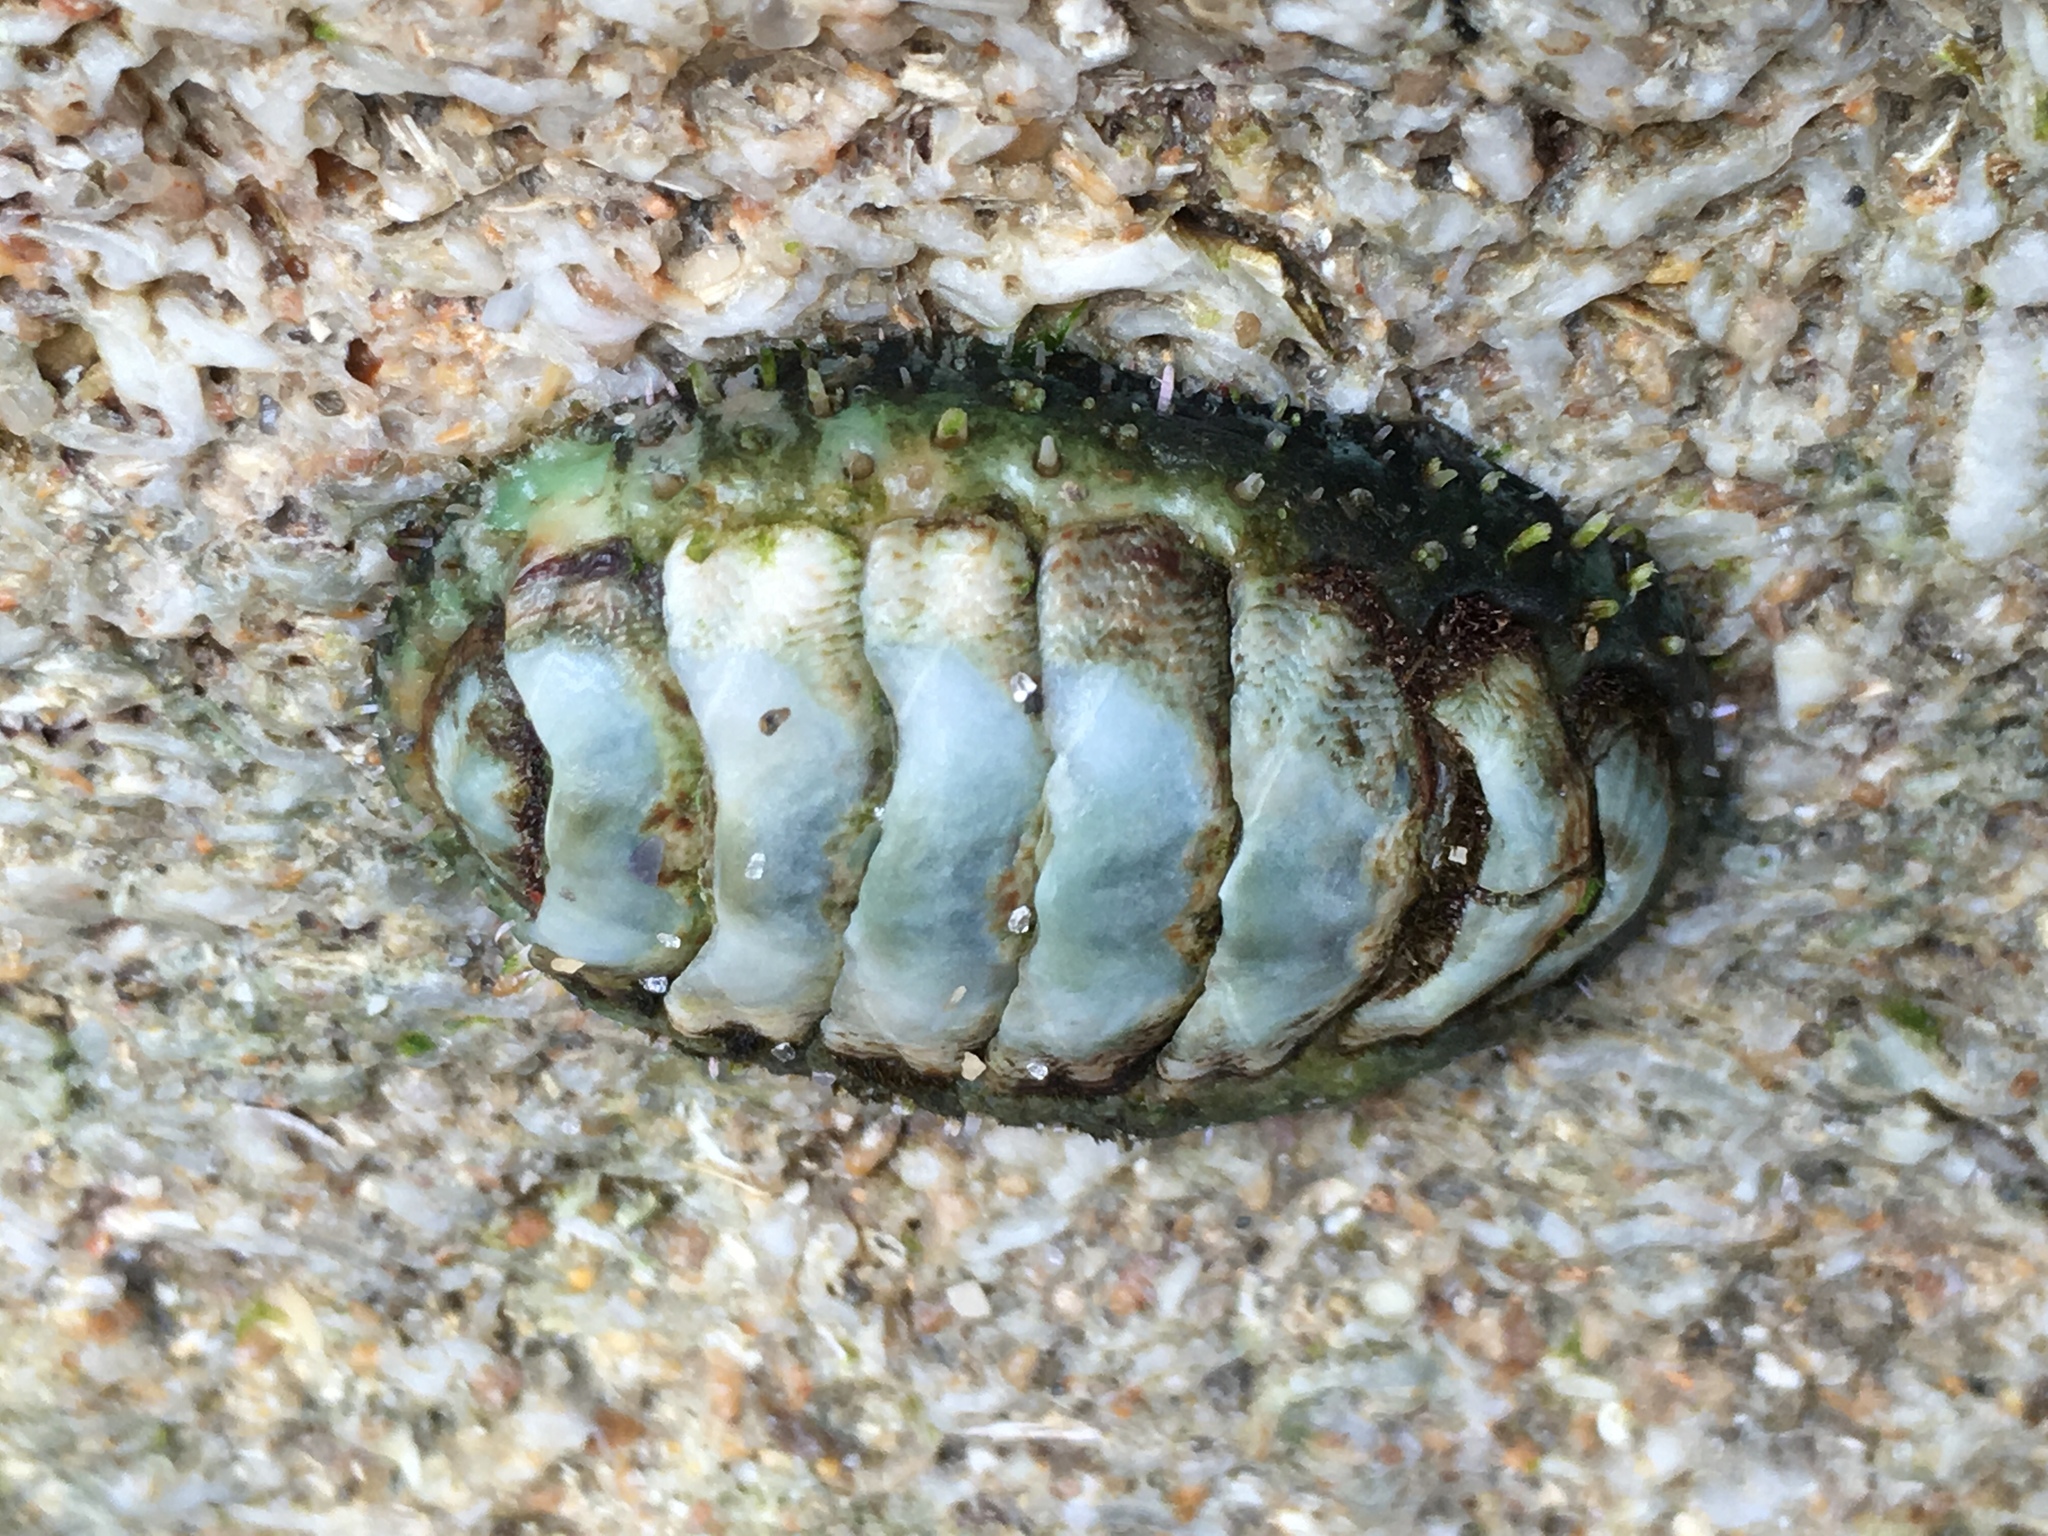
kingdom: Animalia
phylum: Mollusca
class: Polyplacophora
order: Chitonida
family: Tonicellidae
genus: Ceratozona
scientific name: Ceratozona squalida
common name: Rough-girdled chiton
